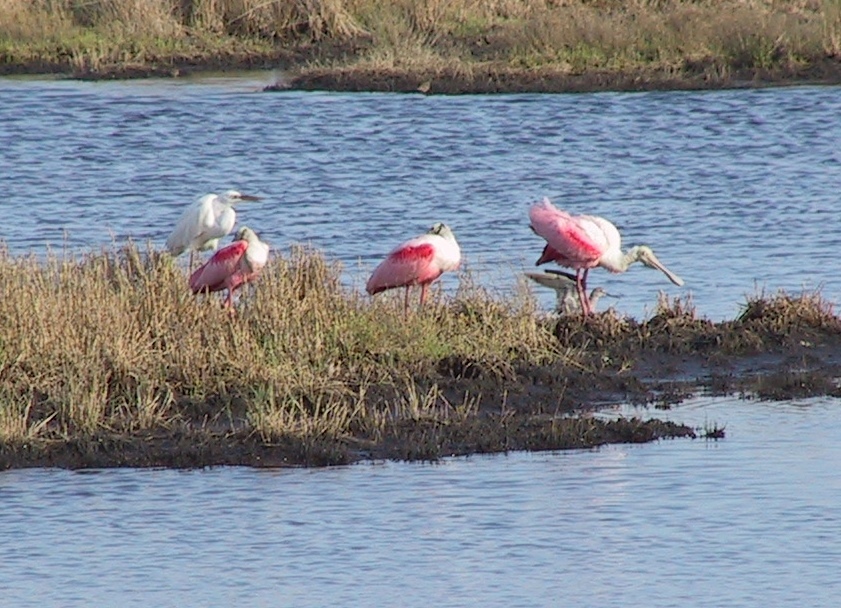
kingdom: Animalia
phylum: Chordata
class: Aves
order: Pelecaniformes
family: Threskiornithidae
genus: Platalea
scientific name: Platalea ajaja
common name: Roseate spoonbill
